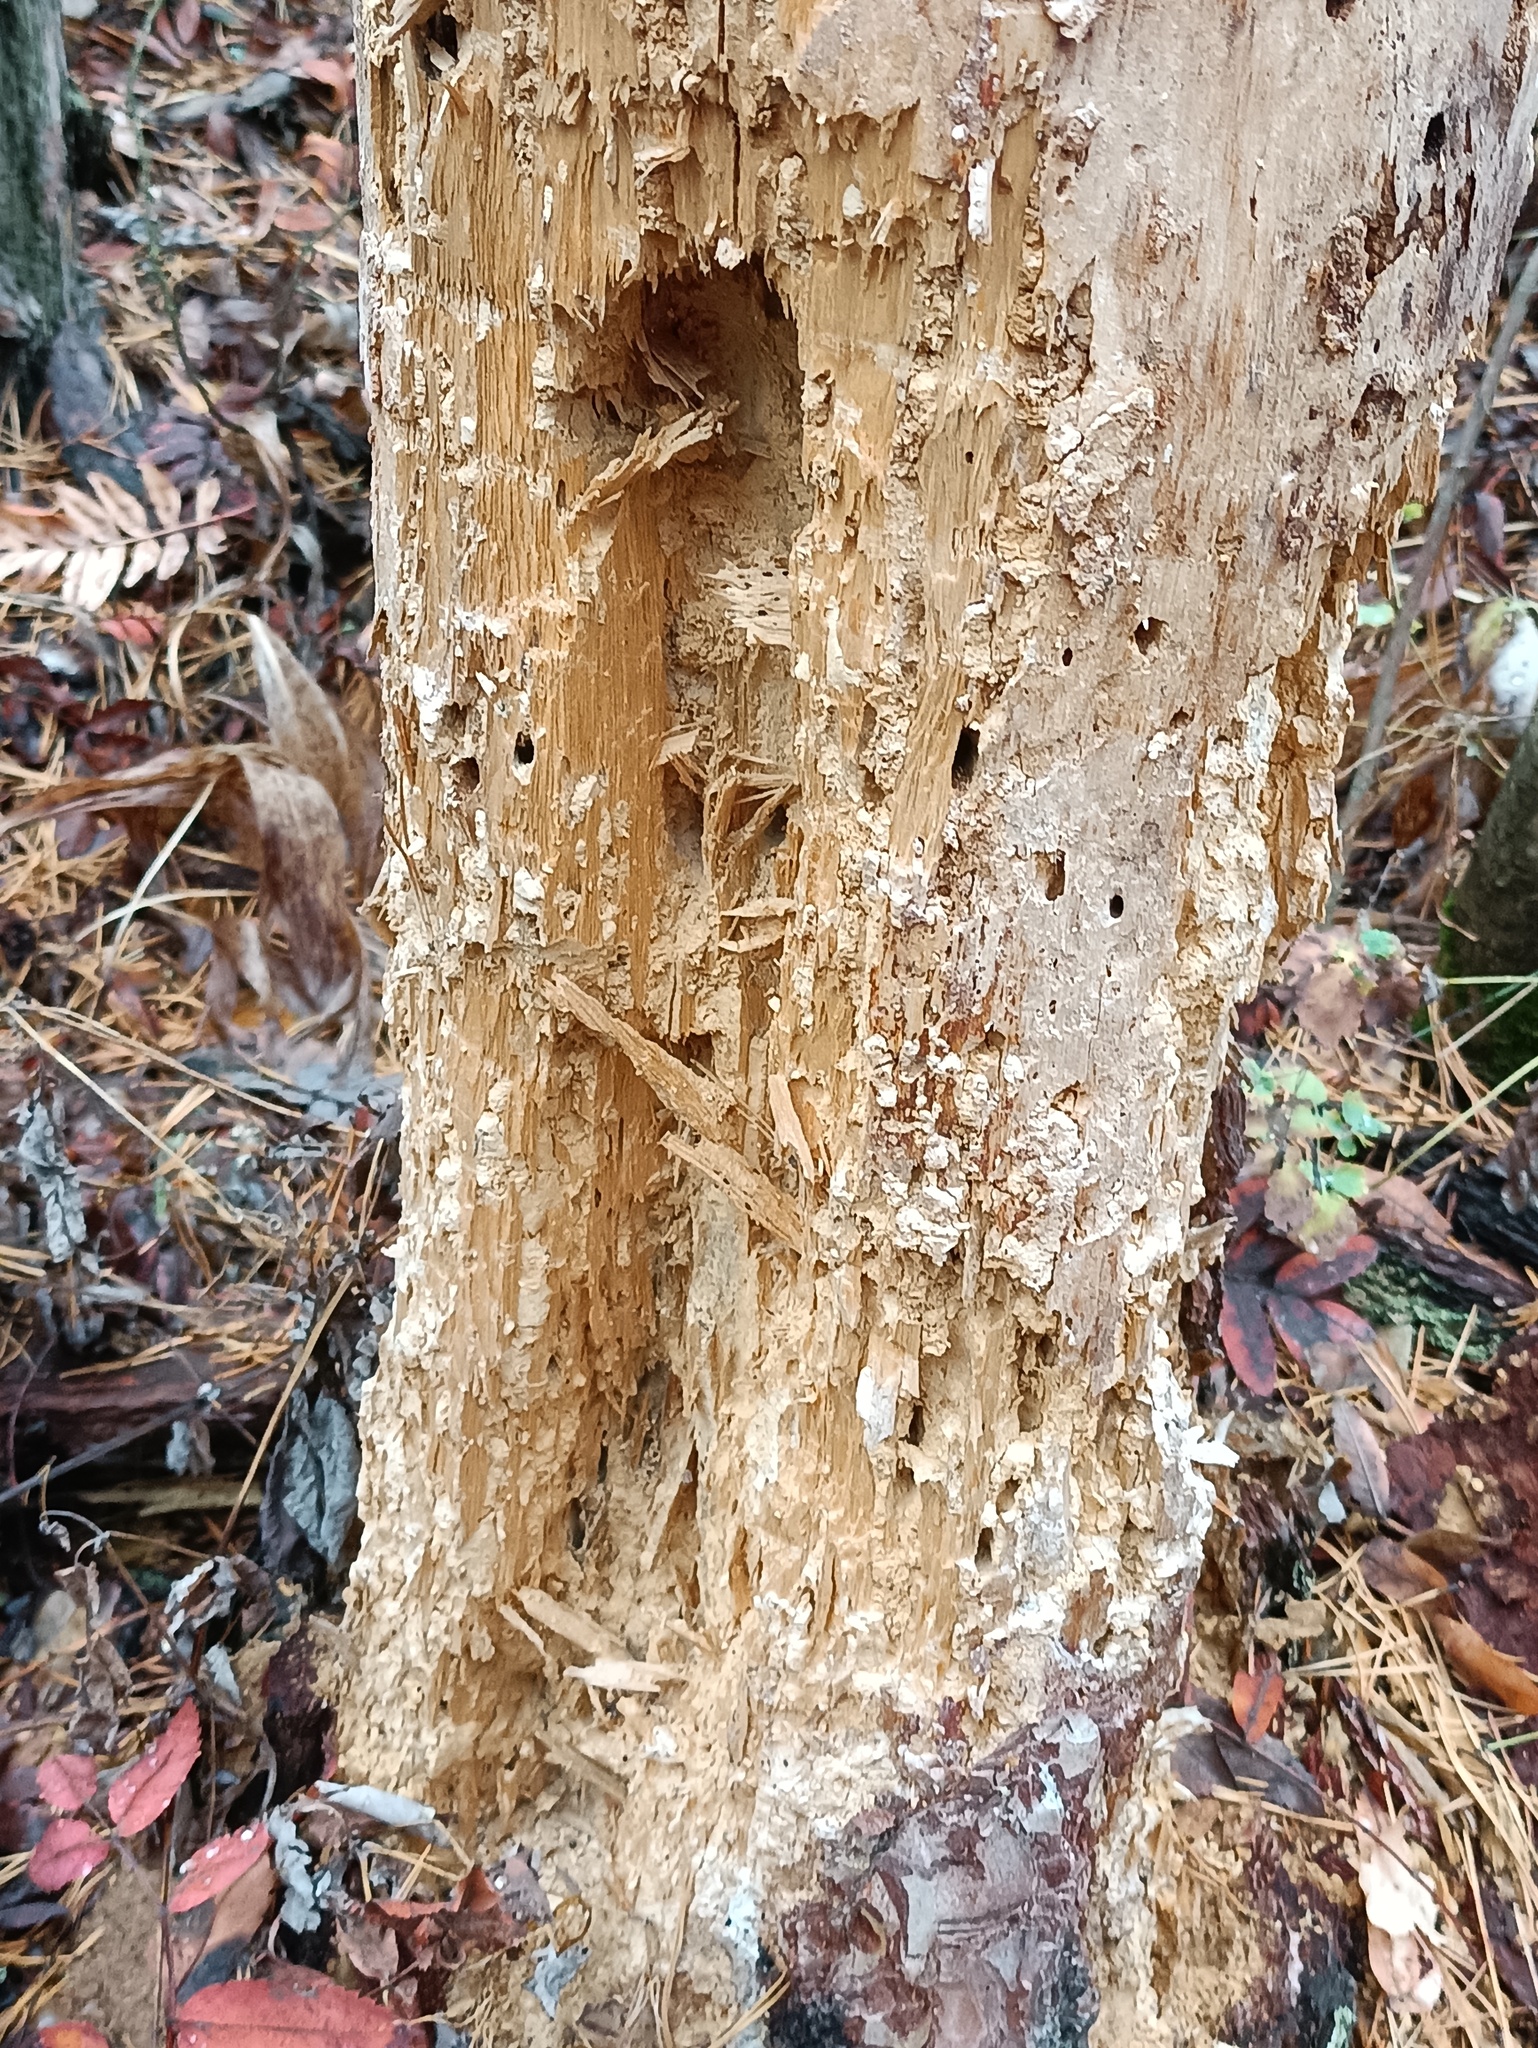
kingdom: Animalia
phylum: Chordata
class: Aves
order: Piciformes
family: Picidae
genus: Dryocopus
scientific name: Dryocopus martius
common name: Black woodpecker
